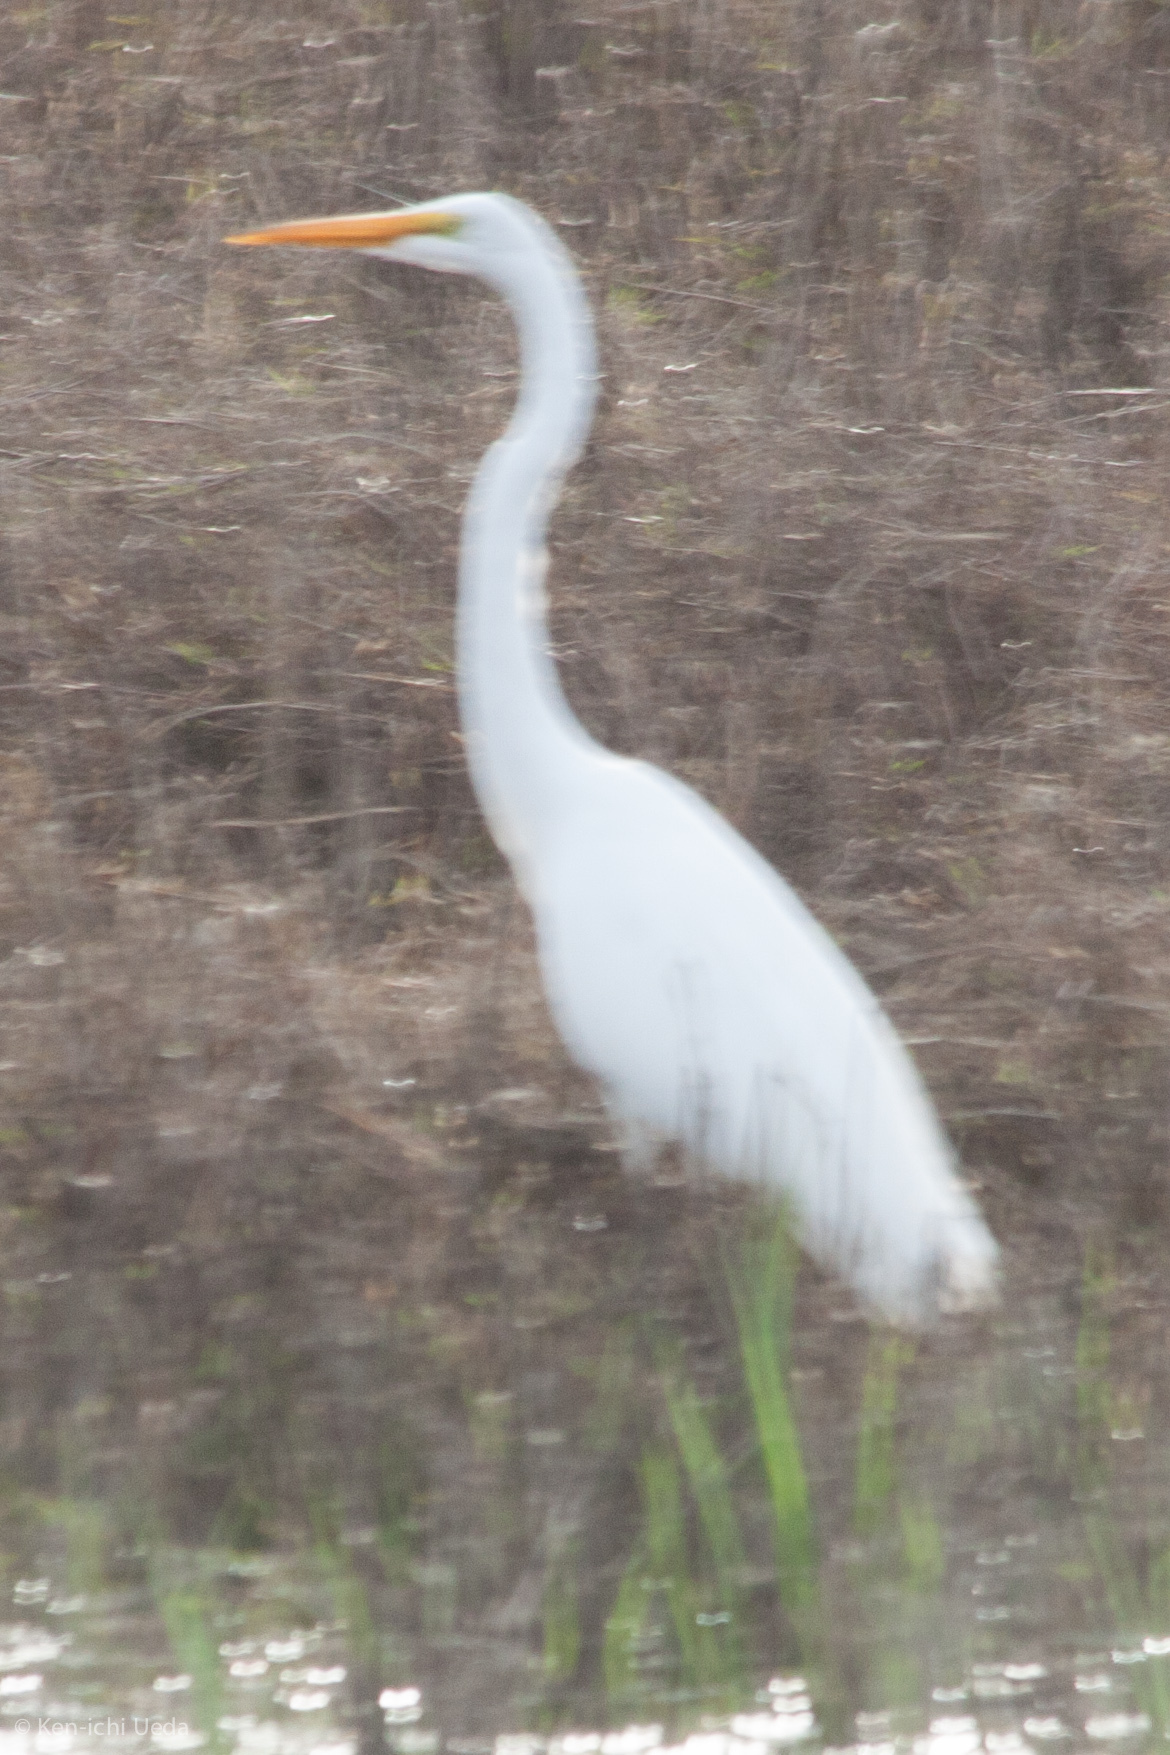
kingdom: Animalia
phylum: Chordata
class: Aves
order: Pelecaniformes
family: Ardeidae
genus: Ardea
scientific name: Ardea alba
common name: Great egret
